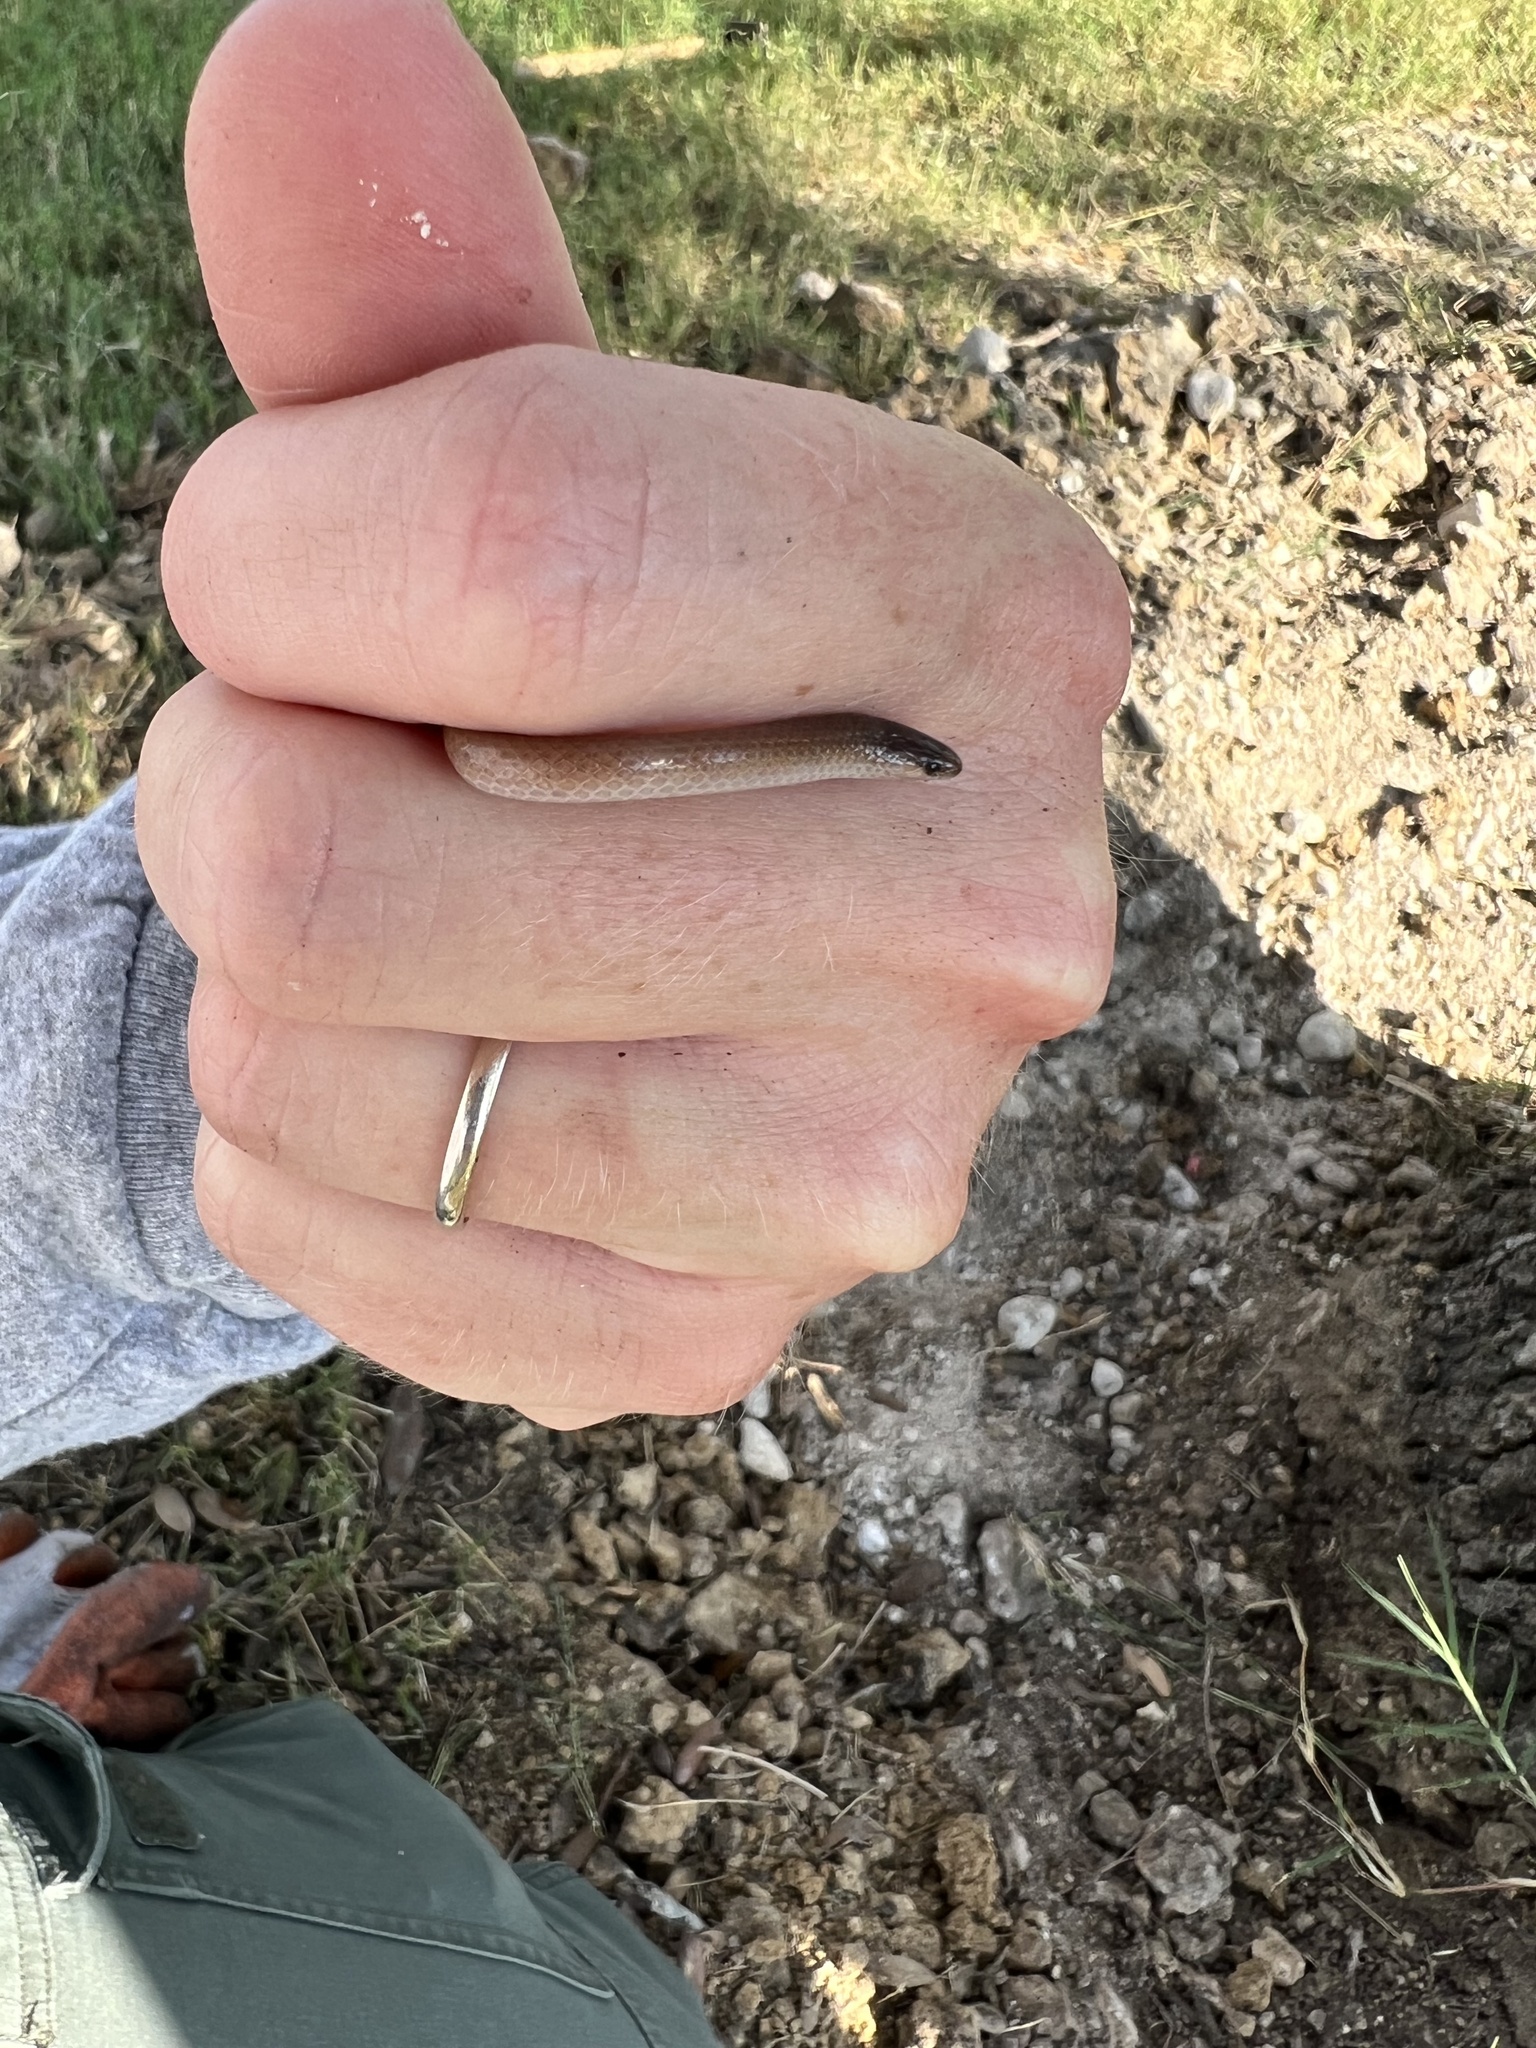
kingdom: Animalia
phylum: Chordata
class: Squamata
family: Colubridae
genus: Tantilla
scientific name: Tantilla gracilis
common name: Flathead snake
